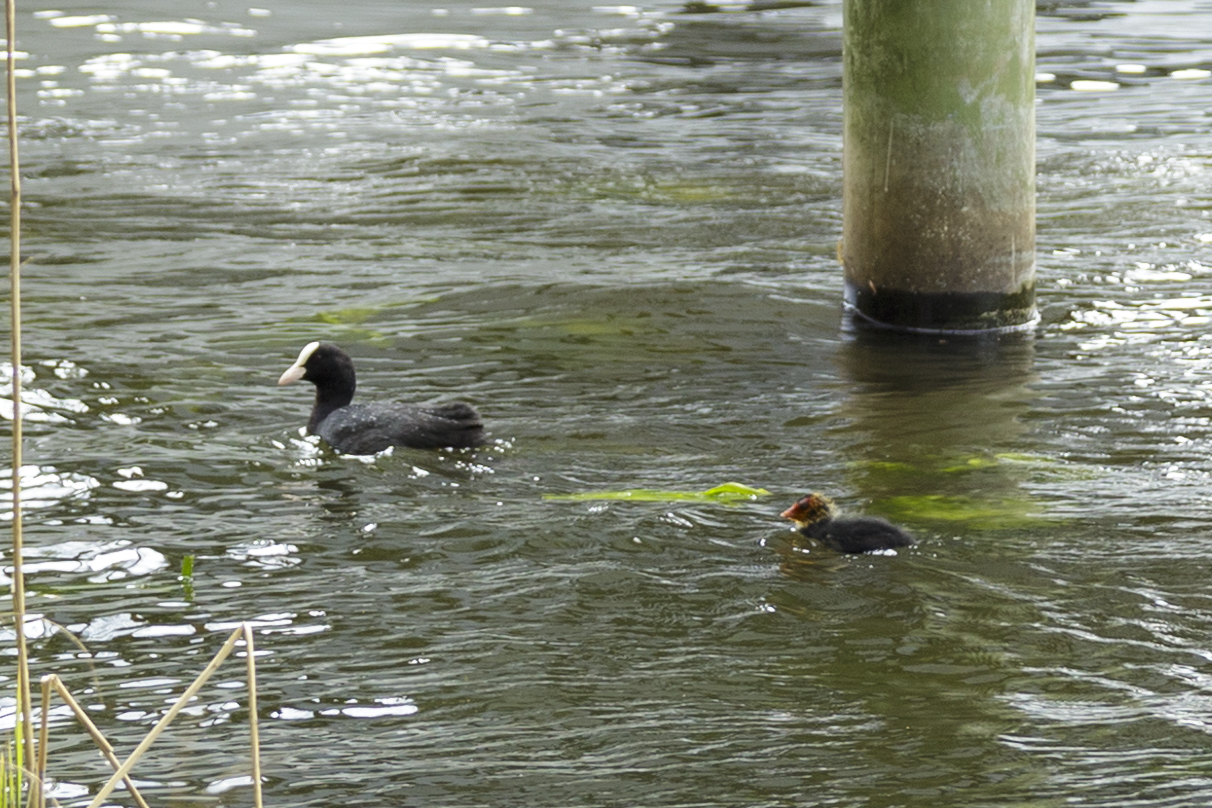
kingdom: Animalia
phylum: Chordata
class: Aves
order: Gruiformes
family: Rallidae
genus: Fulica
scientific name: Fulica atra
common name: Eurasian coot
